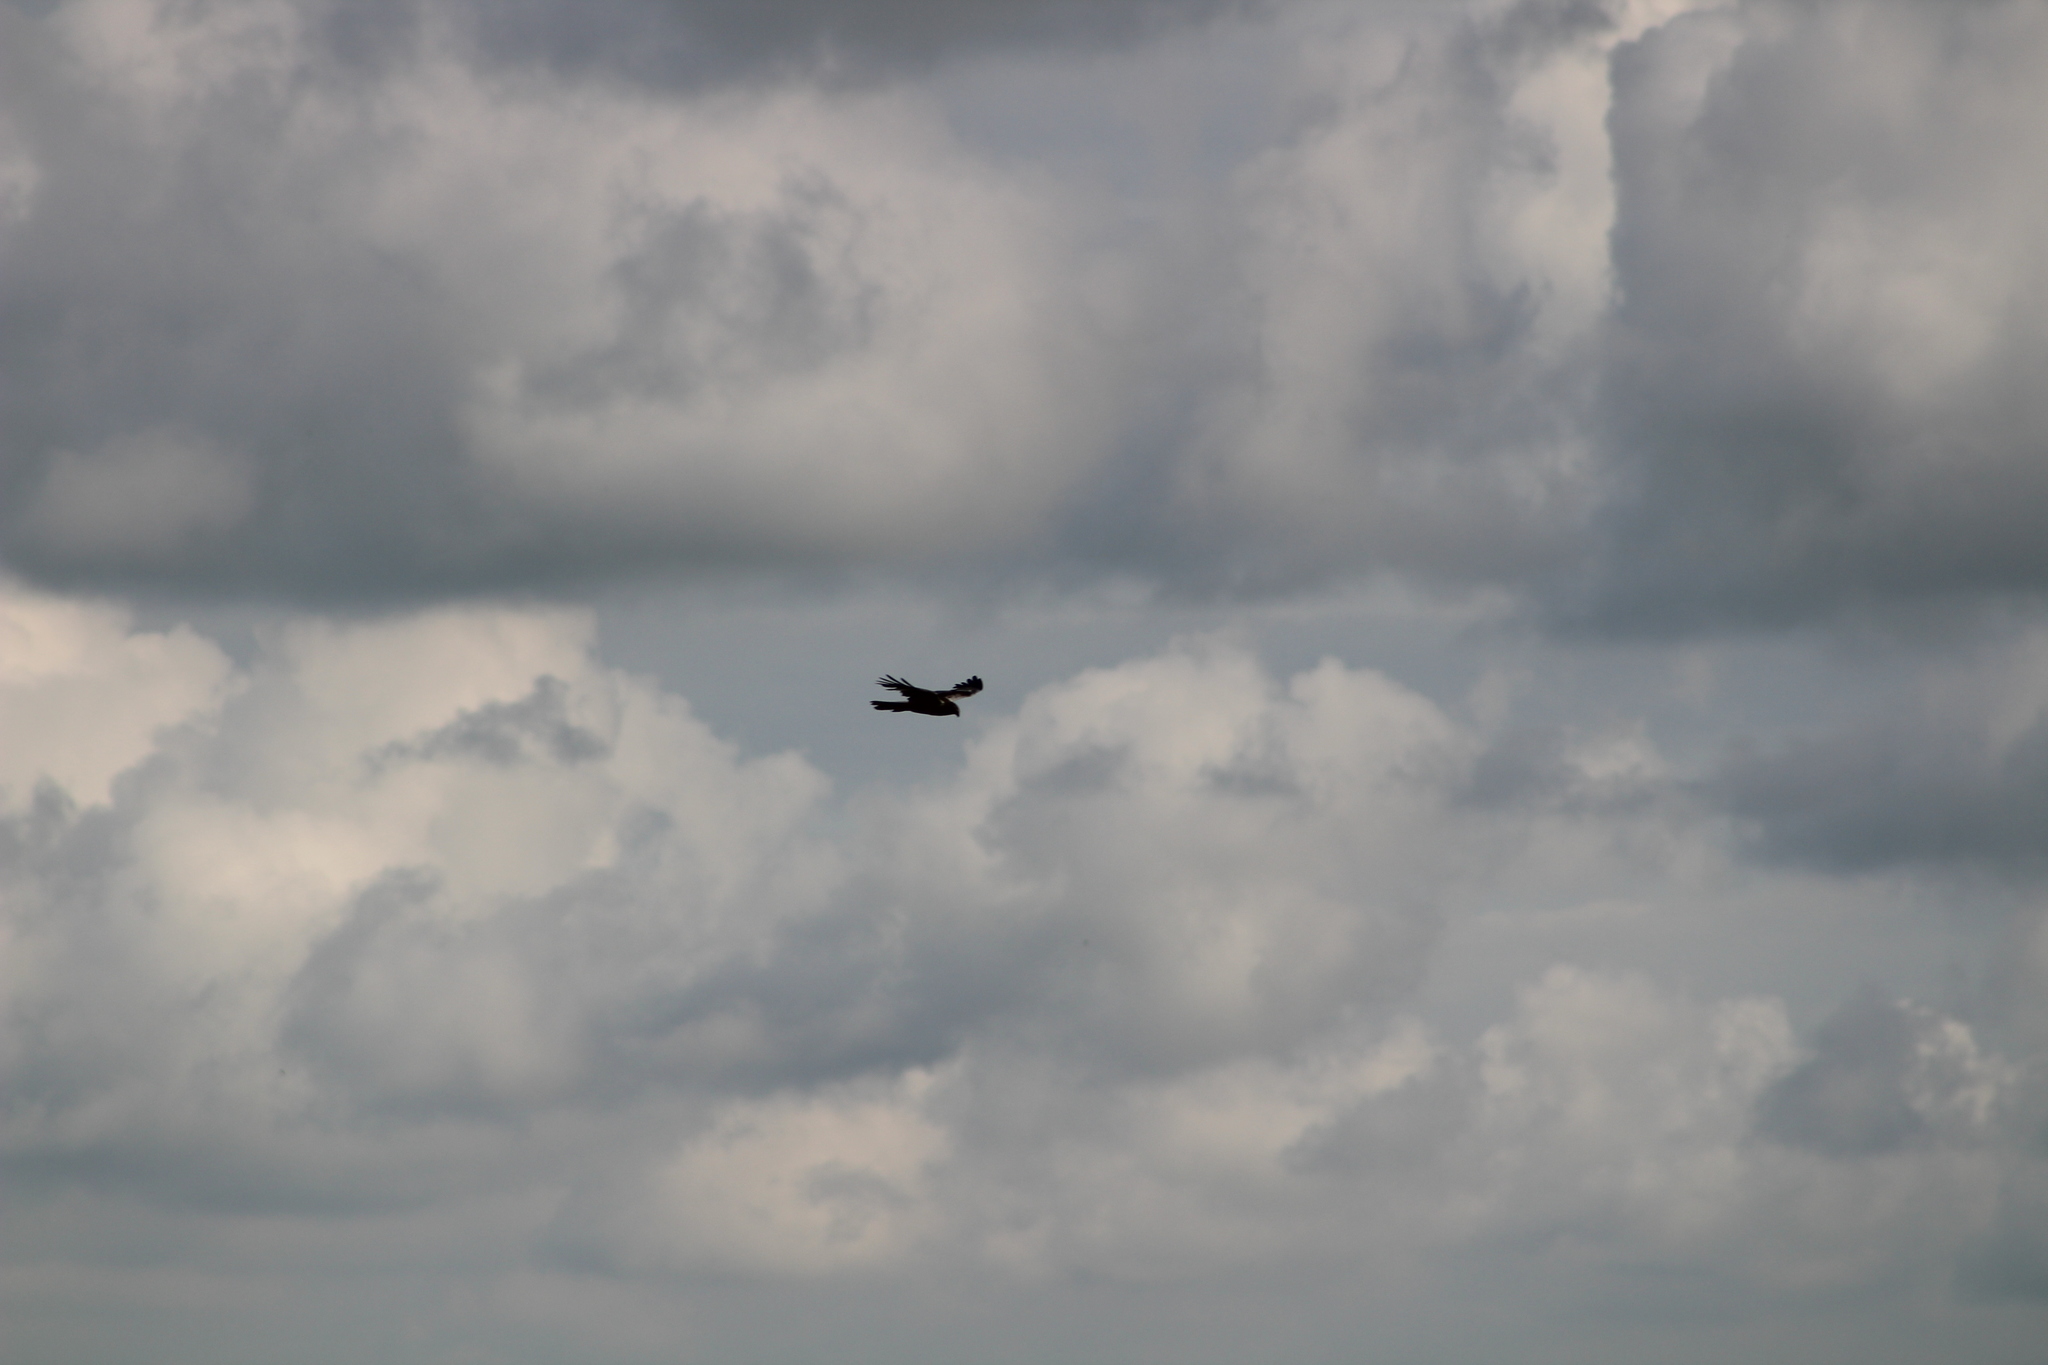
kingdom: Animalia
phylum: Chordata
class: Aves
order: Accipitriformes
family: Accipitridae
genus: Circus
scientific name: Circus aeruginosus
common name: Western marsh harrier
